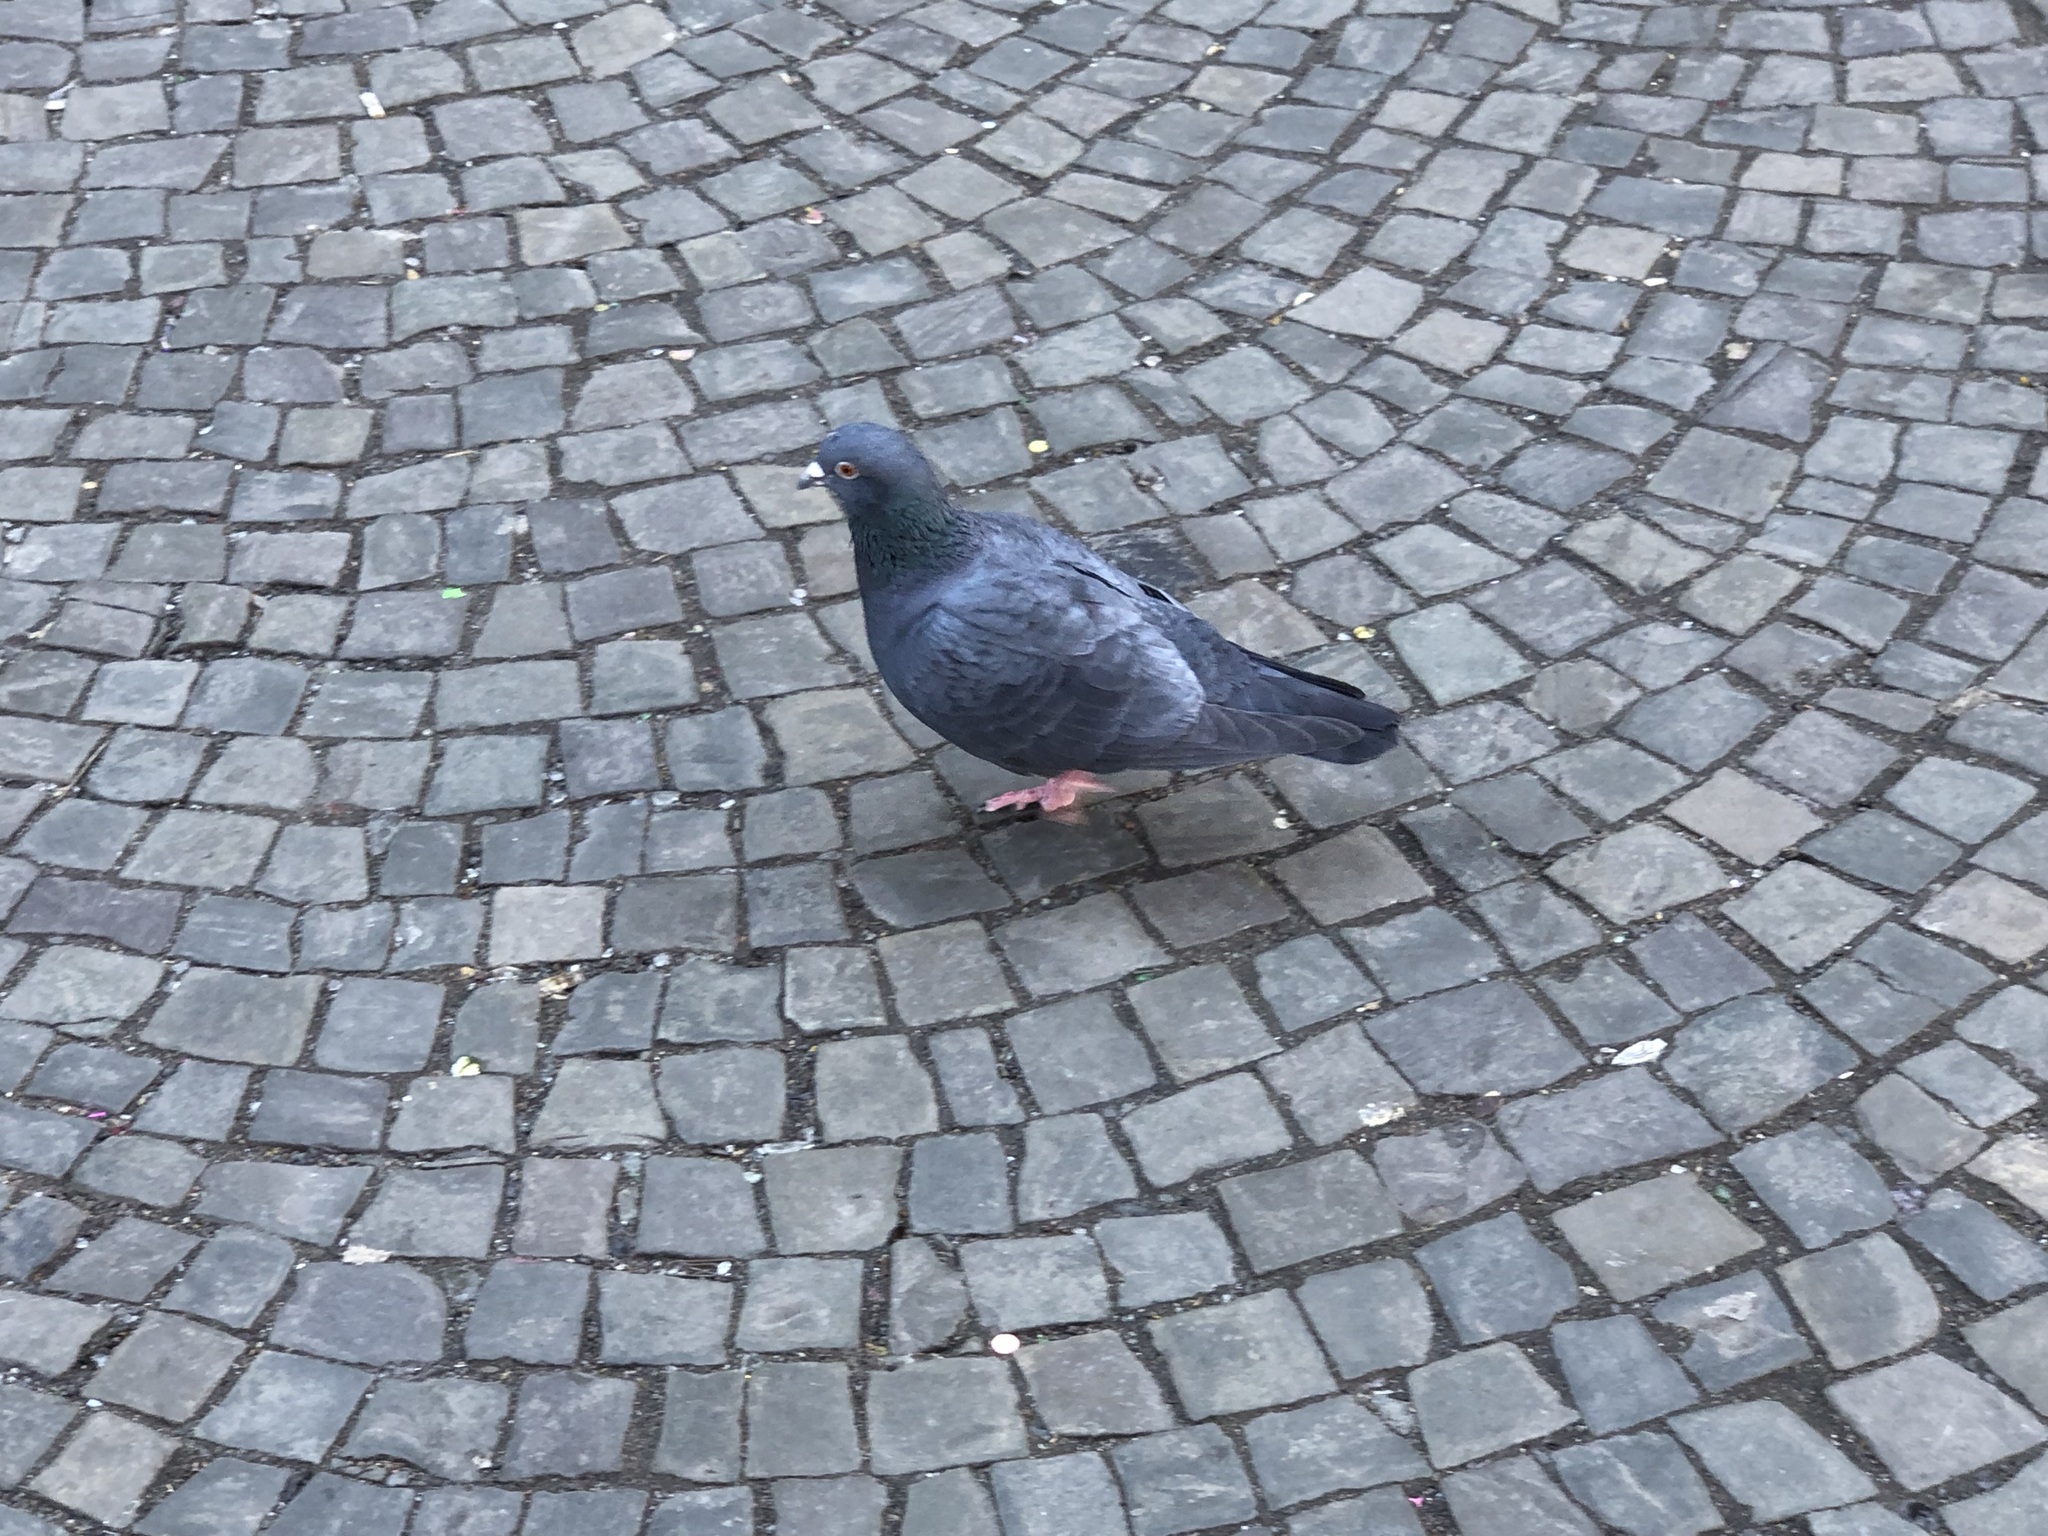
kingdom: Animalia
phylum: Chordata
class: Aves
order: Columbiformes
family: Columbidae
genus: Columba
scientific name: Columba livia
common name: Rock pigeon
